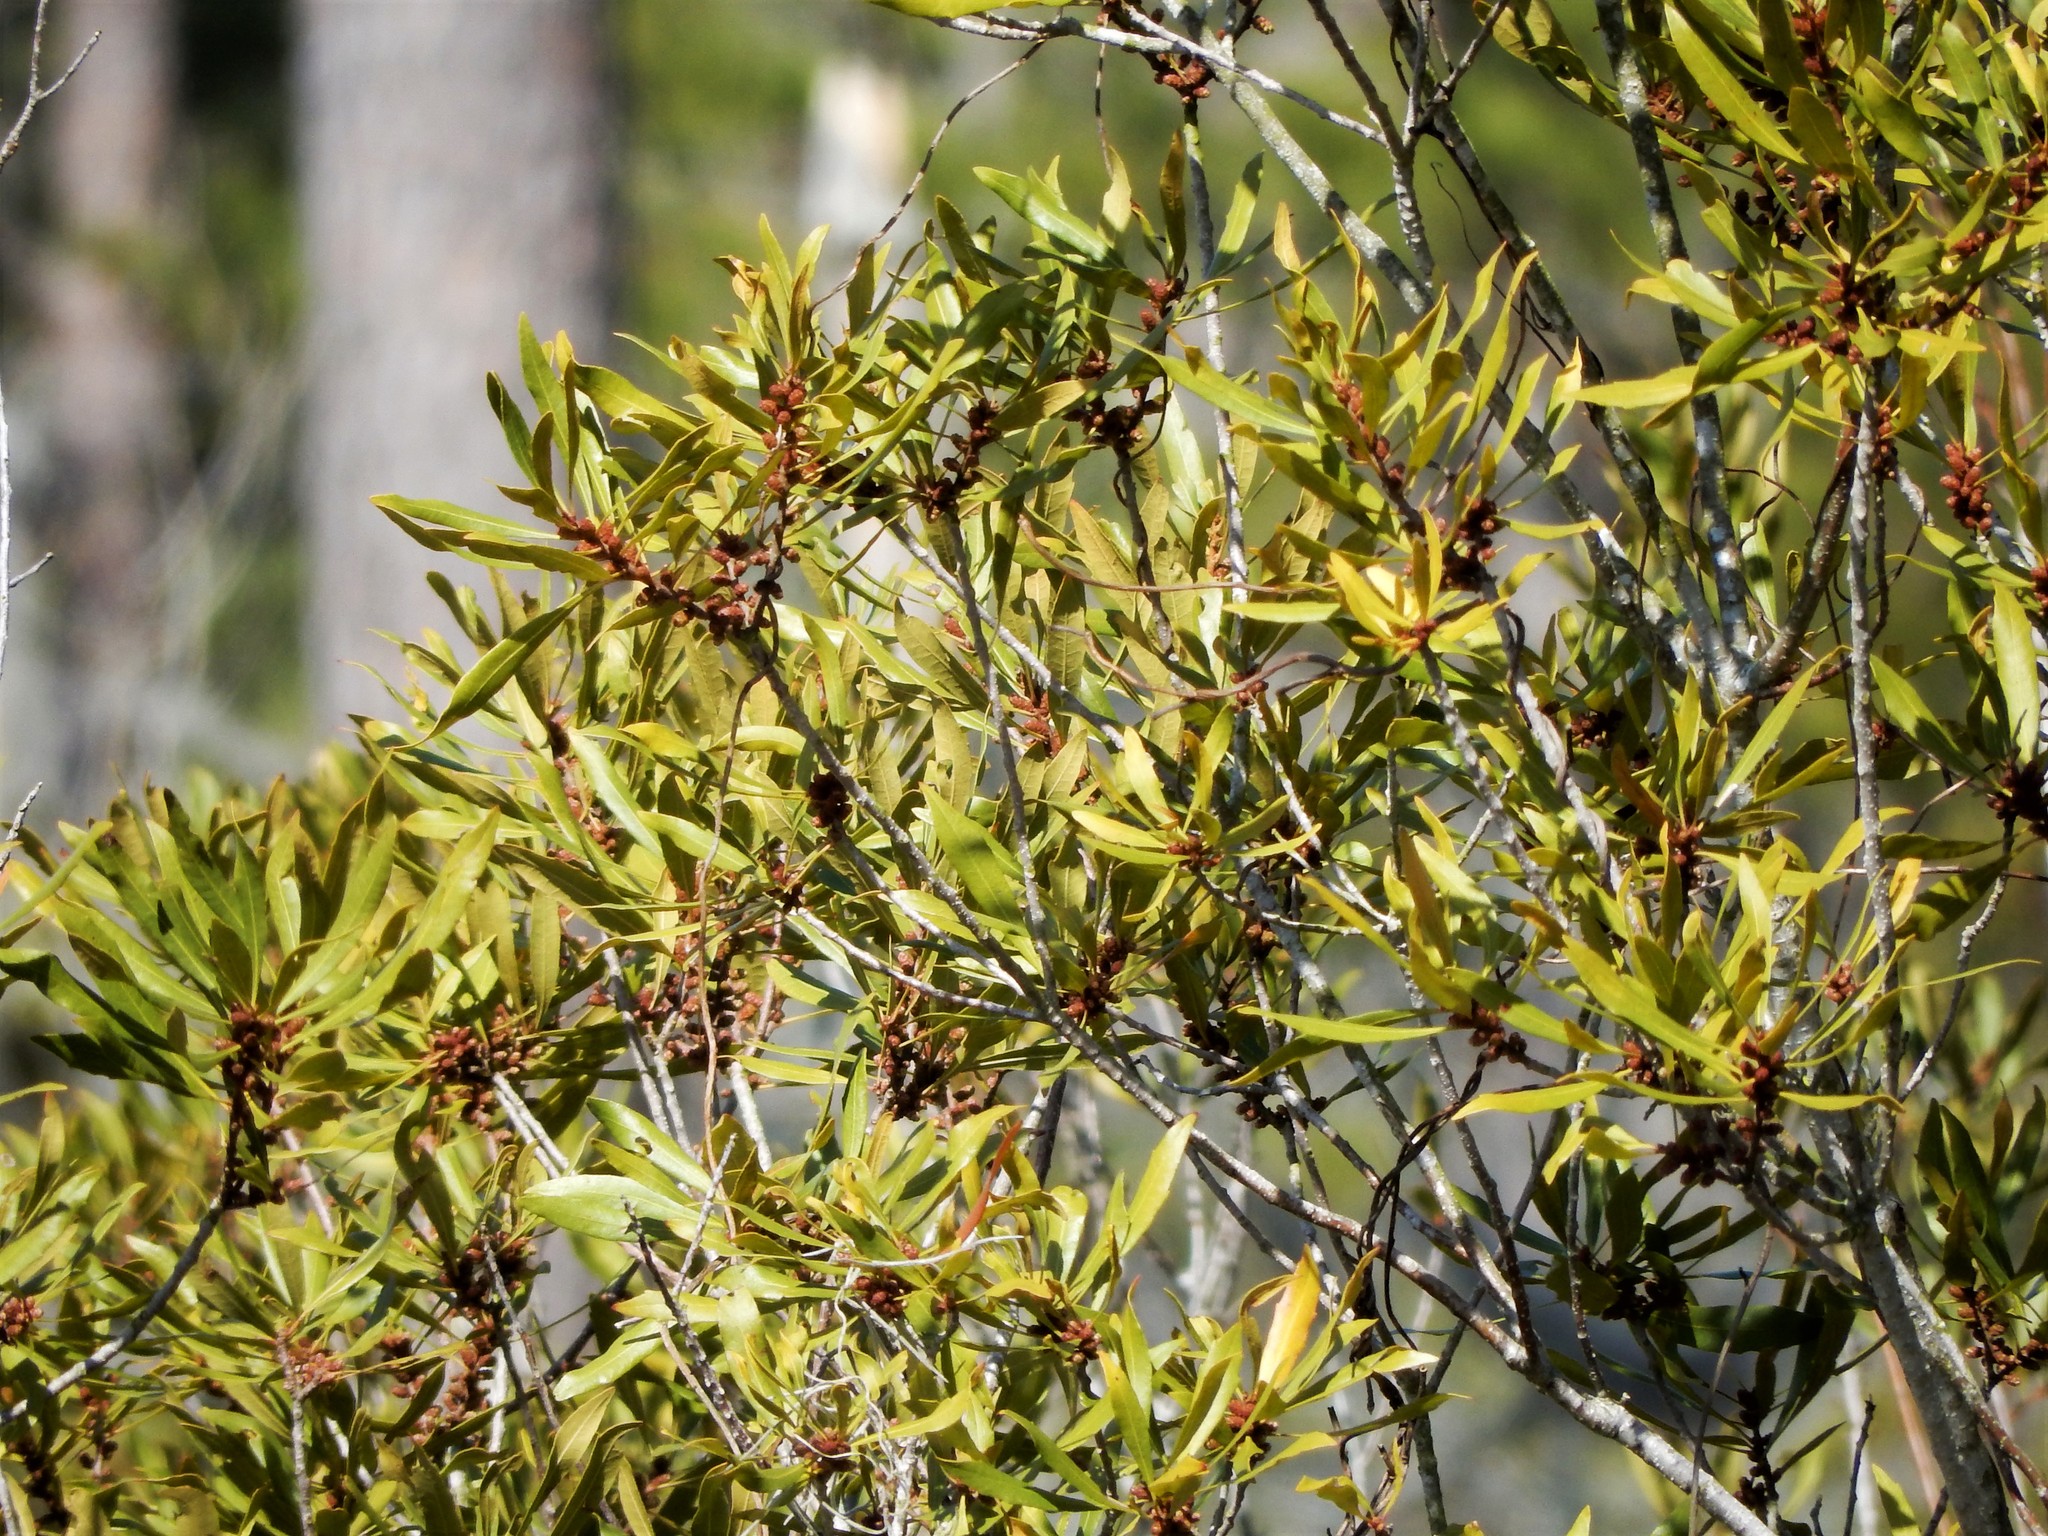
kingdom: Plantae
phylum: Tracheophyta
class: Magnoliopsida
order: Fagales
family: Myricaceae
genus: Morella
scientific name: Morella cerifera
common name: Wax myrtle
